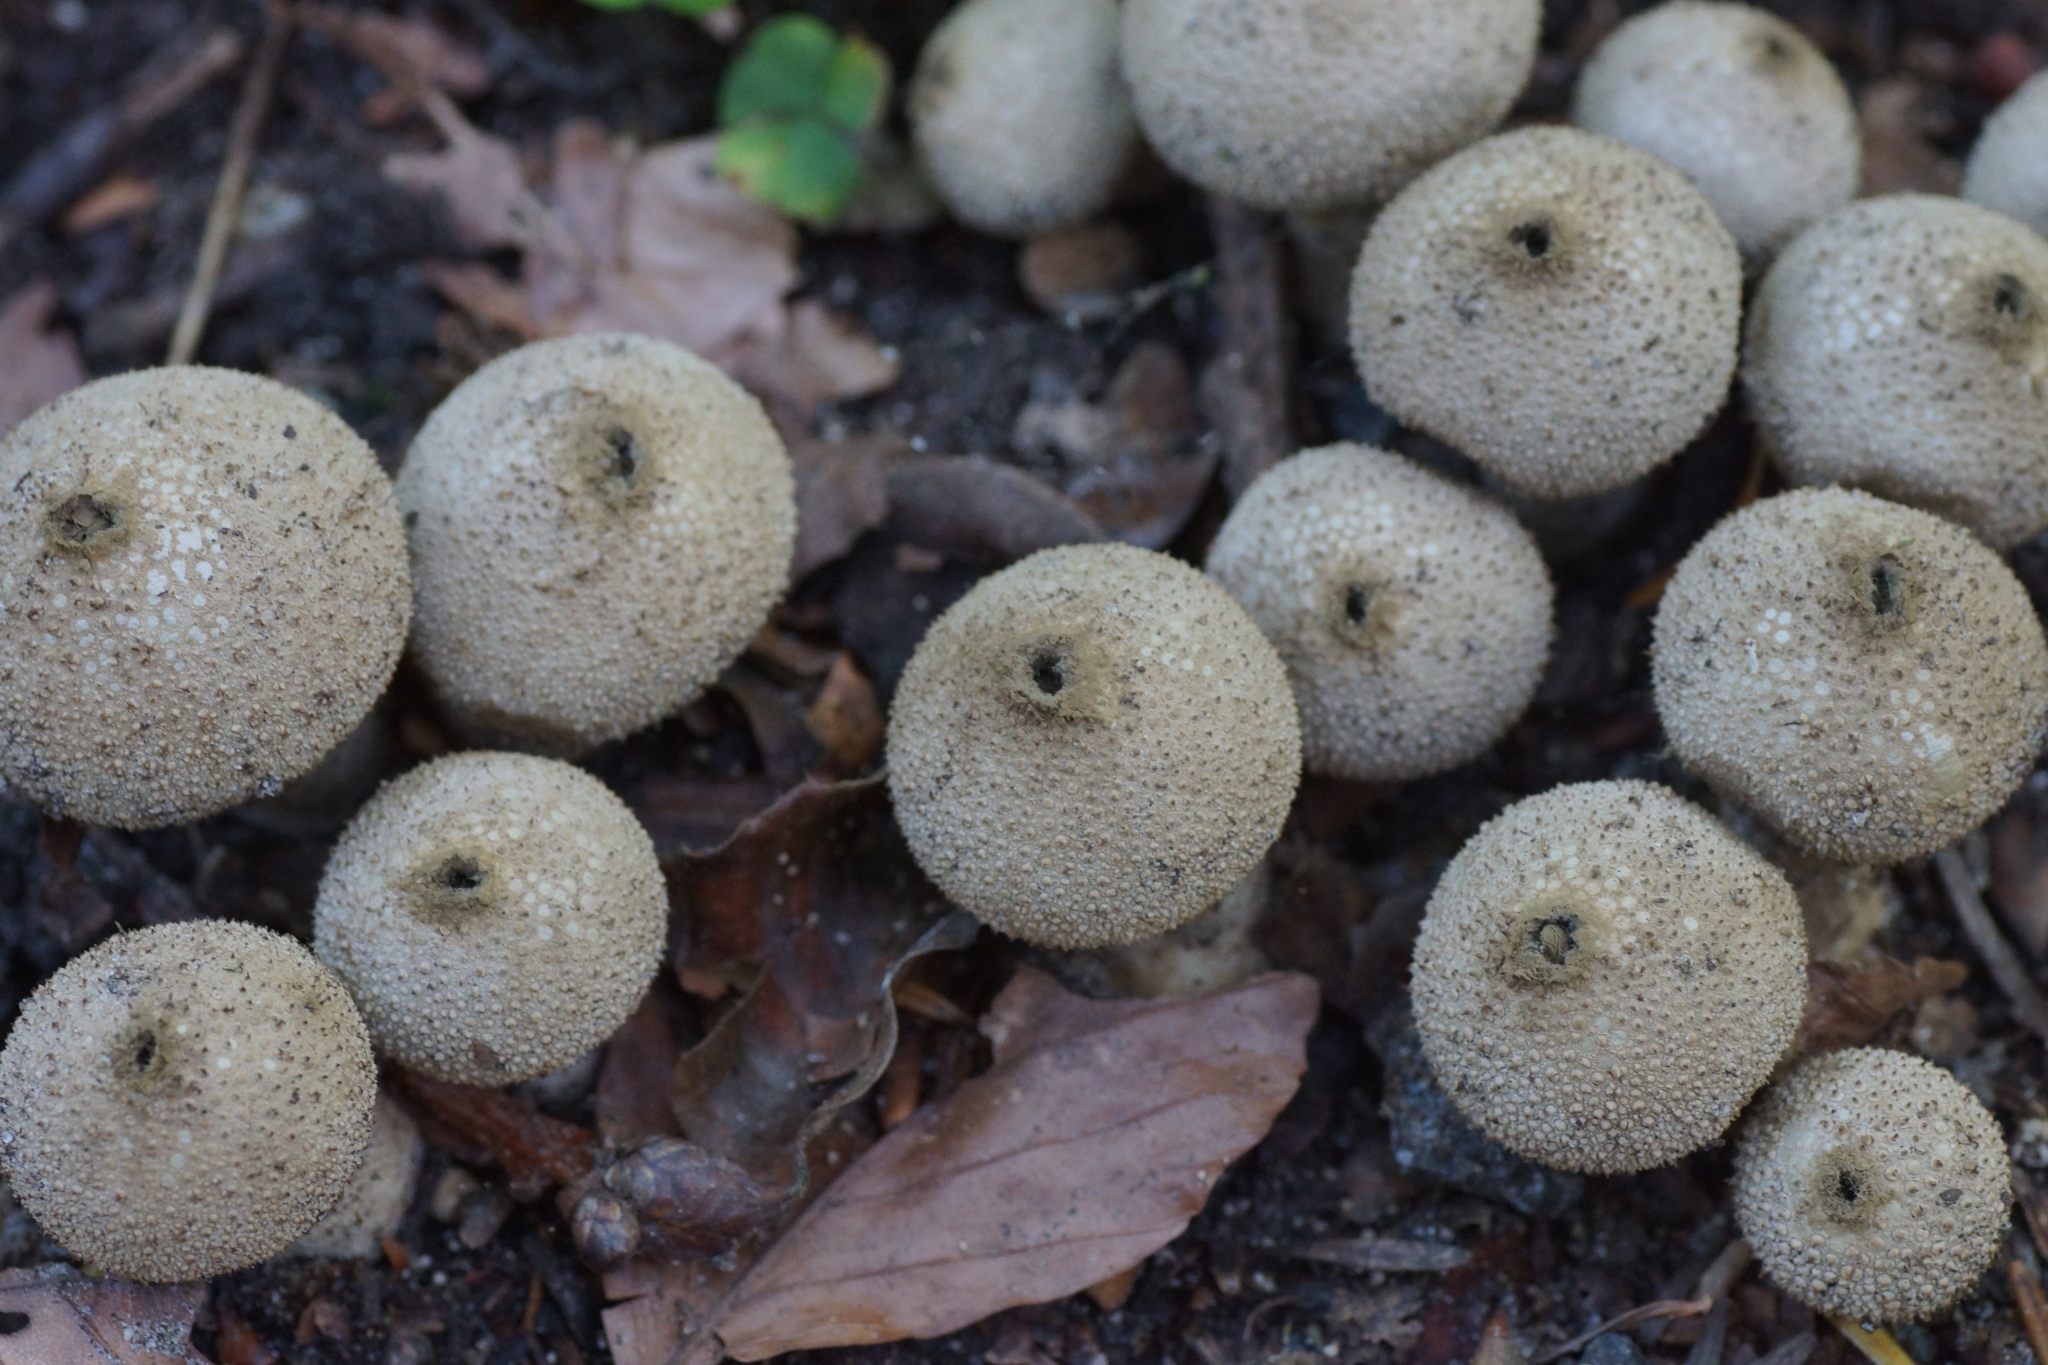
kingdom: Fungi
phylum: Basidiomycota
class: Agaricomycetes
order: Agaricales
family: Lycoperdaceae
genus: Lycoperdon
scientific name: Lycoperdon perlatum
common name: Common puffball
